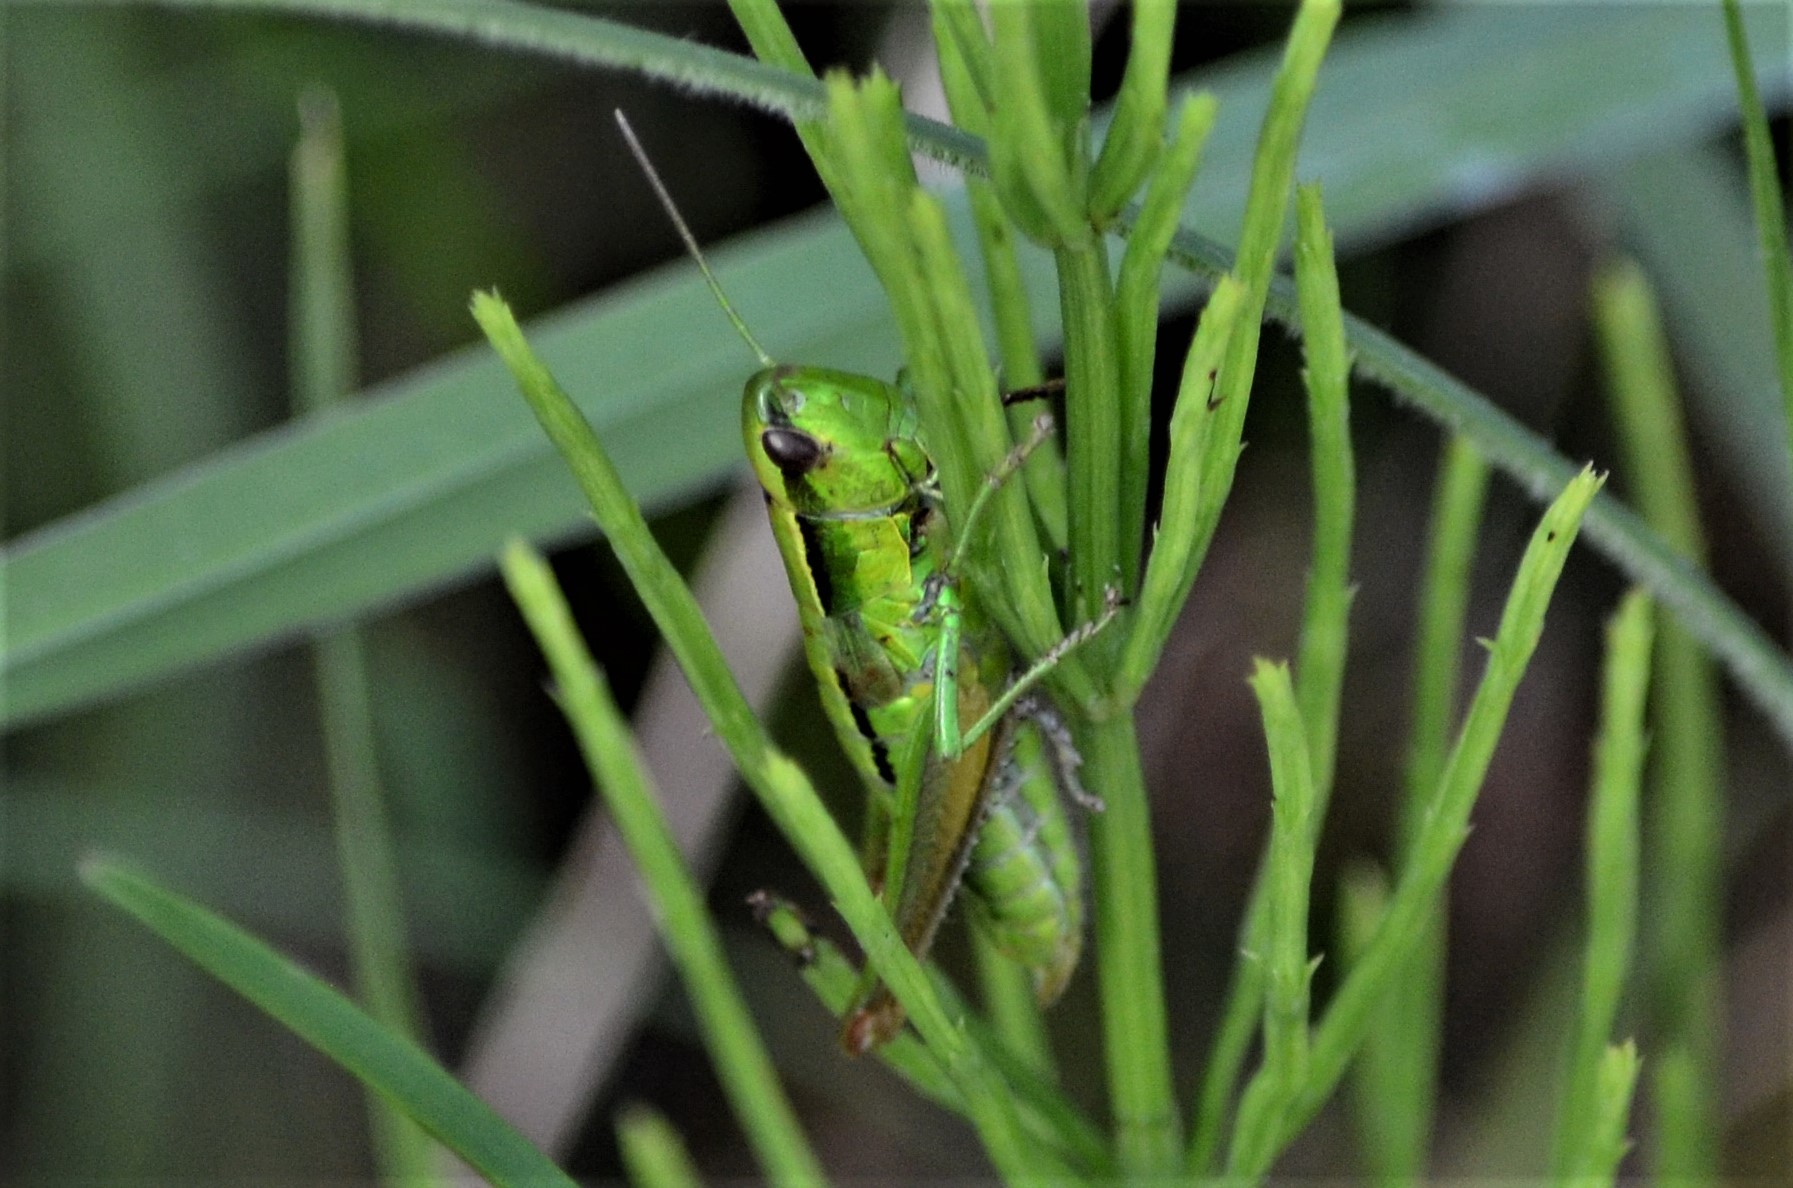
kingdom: Animalia
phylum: Arthropoda
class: Insecta
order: Orthoptera
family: Acrididae
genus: Euthystira
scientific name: Euthystira brachyptera
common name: Small gold grasshopper
